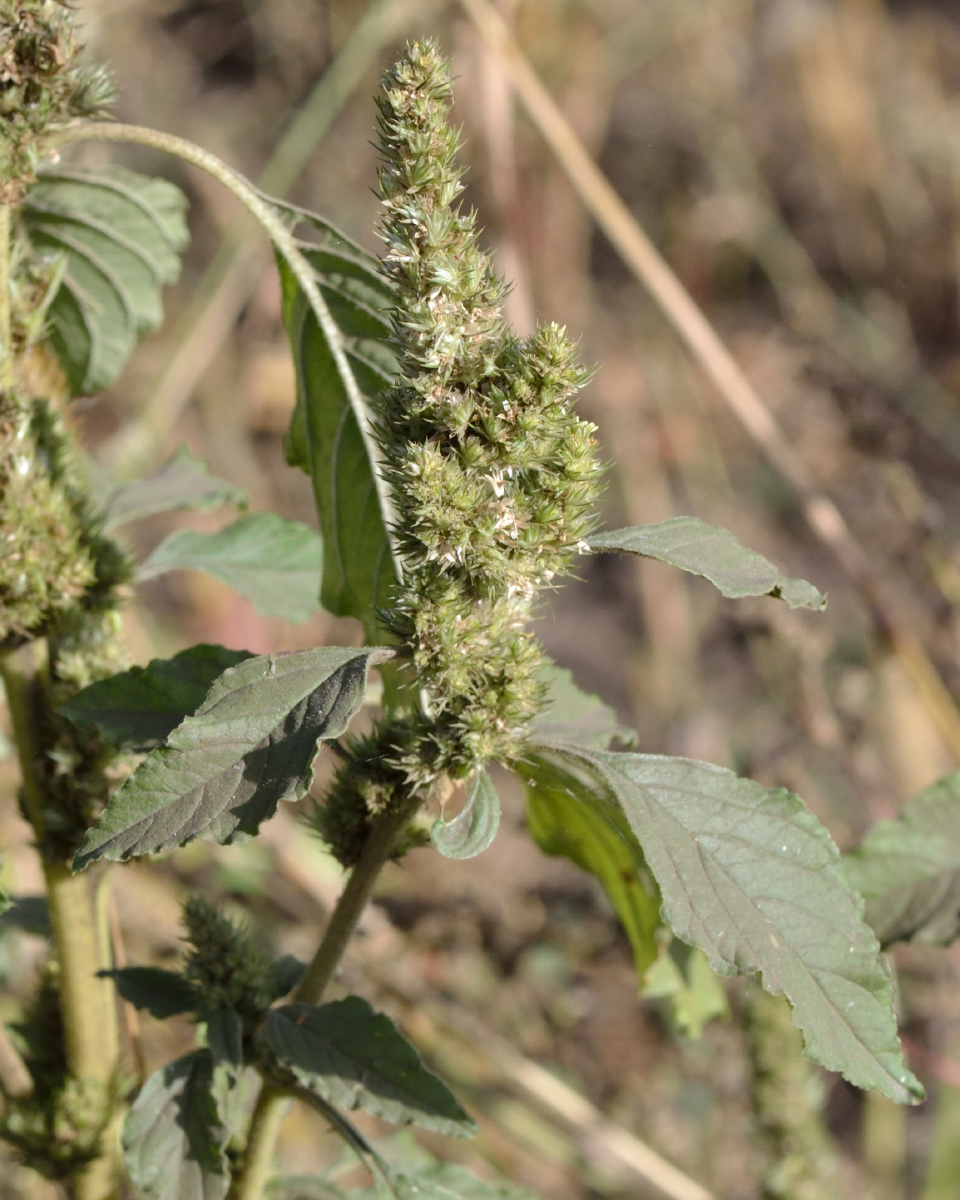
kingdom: Plantae
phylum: Tracheophyta
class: Magnoliopsida
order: Caryophyllales
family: Amaranthaceae
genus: Amaranthus
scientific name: Amaranthus retroflexus
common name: Redroot amaranth
